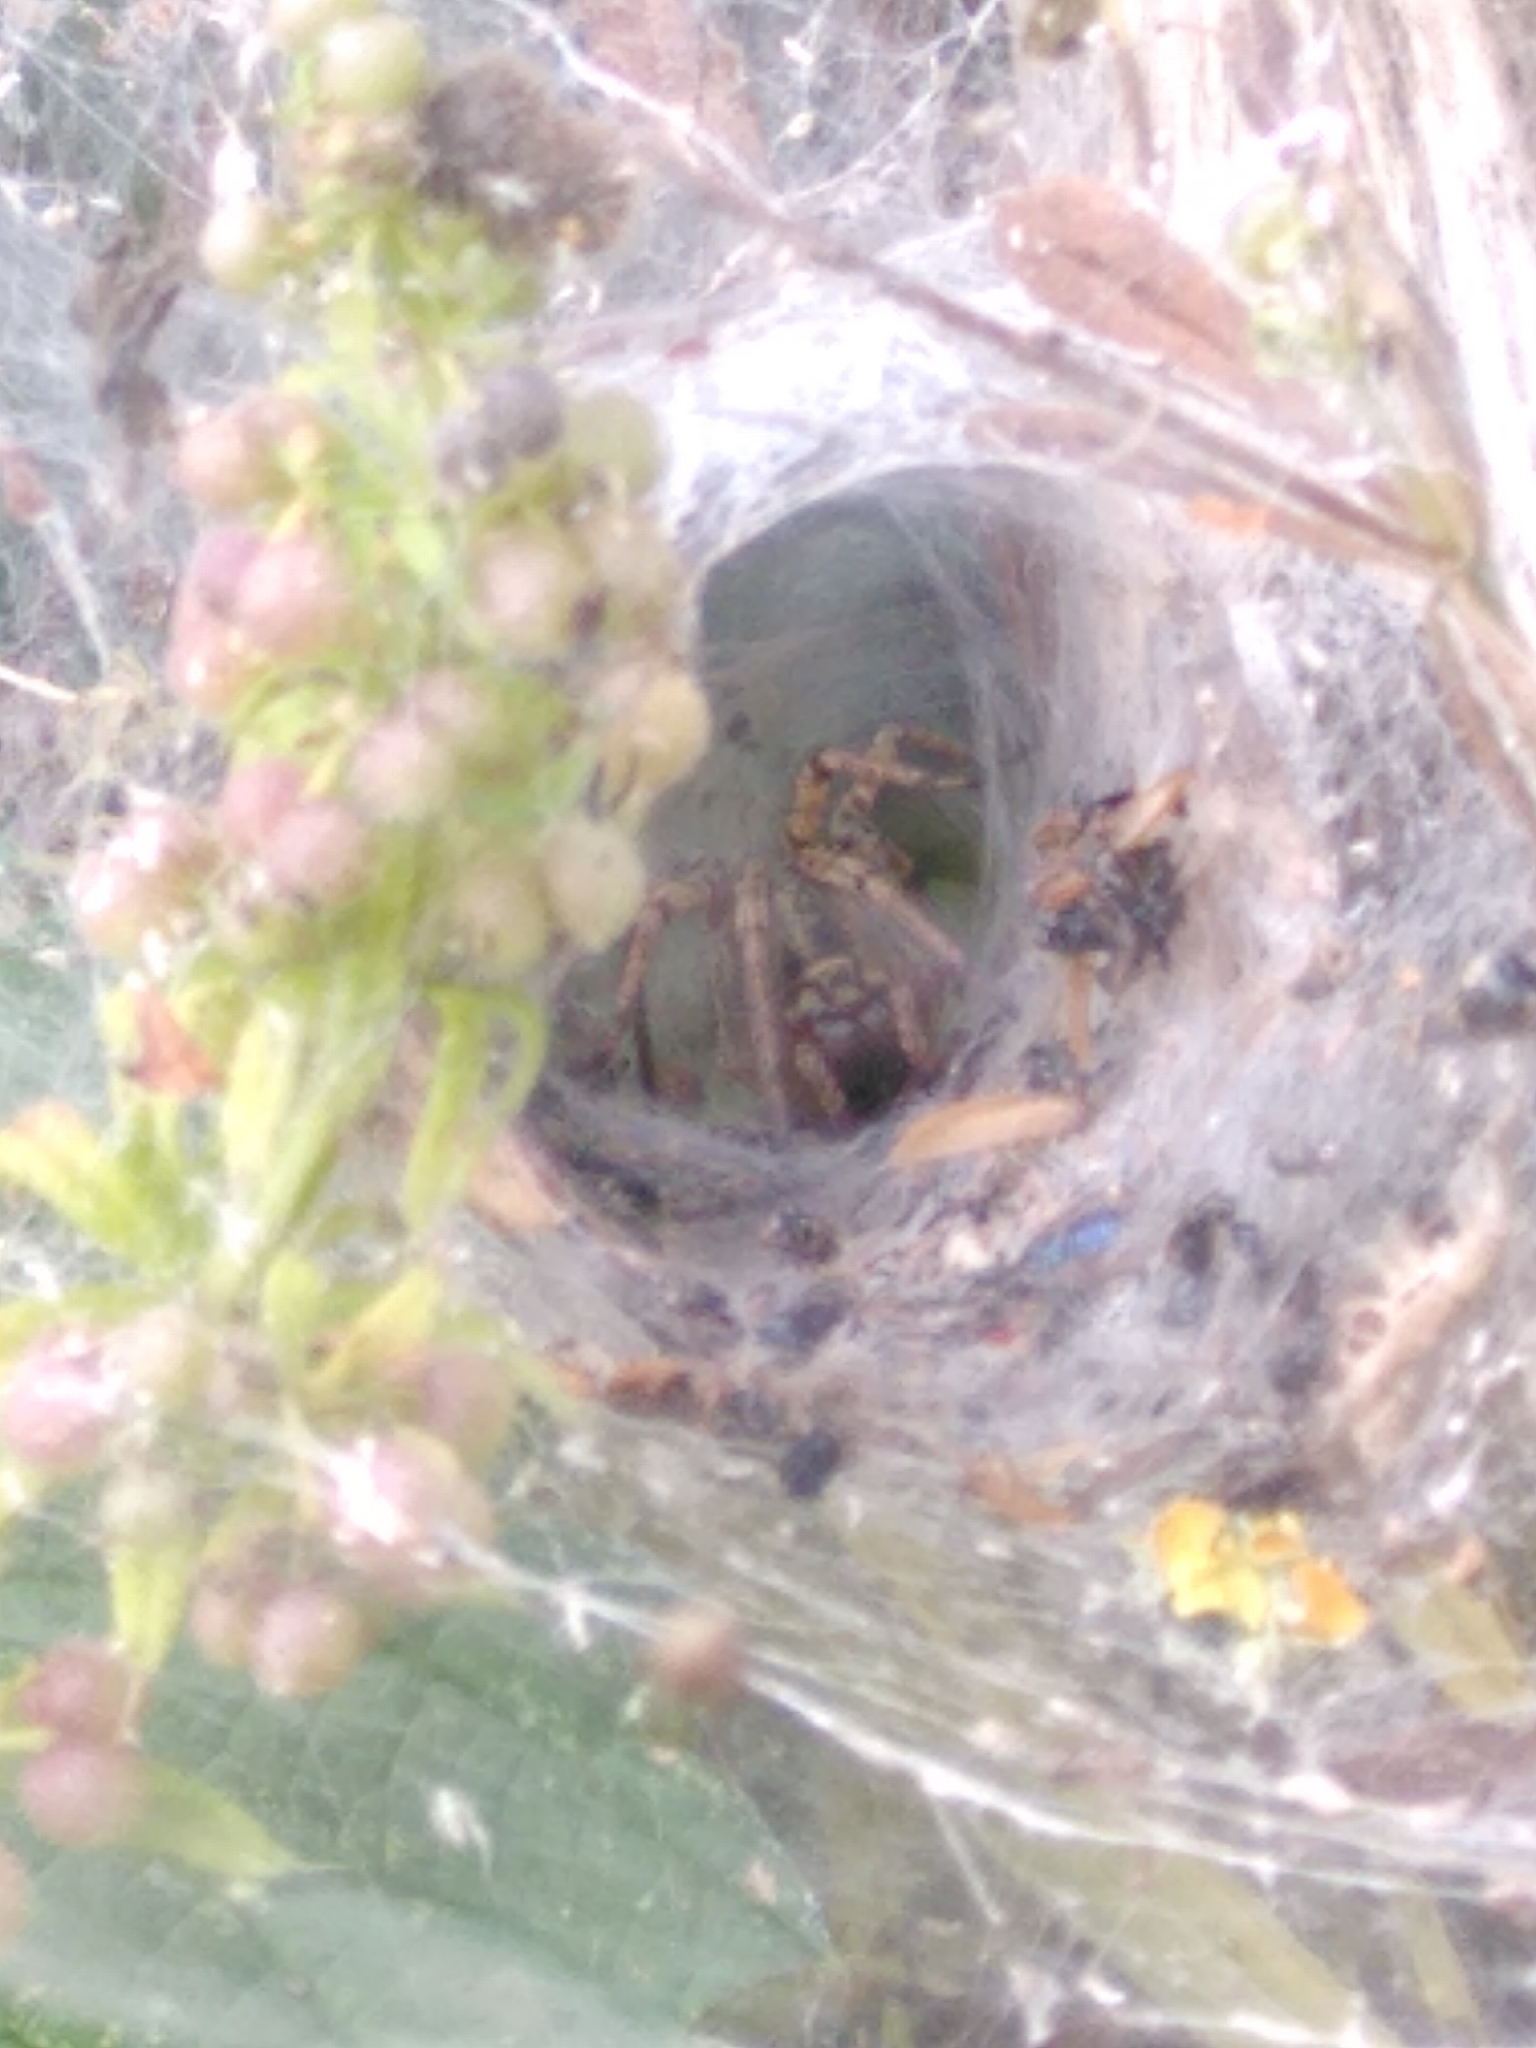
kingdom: Animalia
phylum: Arthropoda
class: Arachnida
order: Araneae
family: Agelenidae
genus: Agelena
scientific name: Agelena labyrinthica
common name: Labyrinth spider
